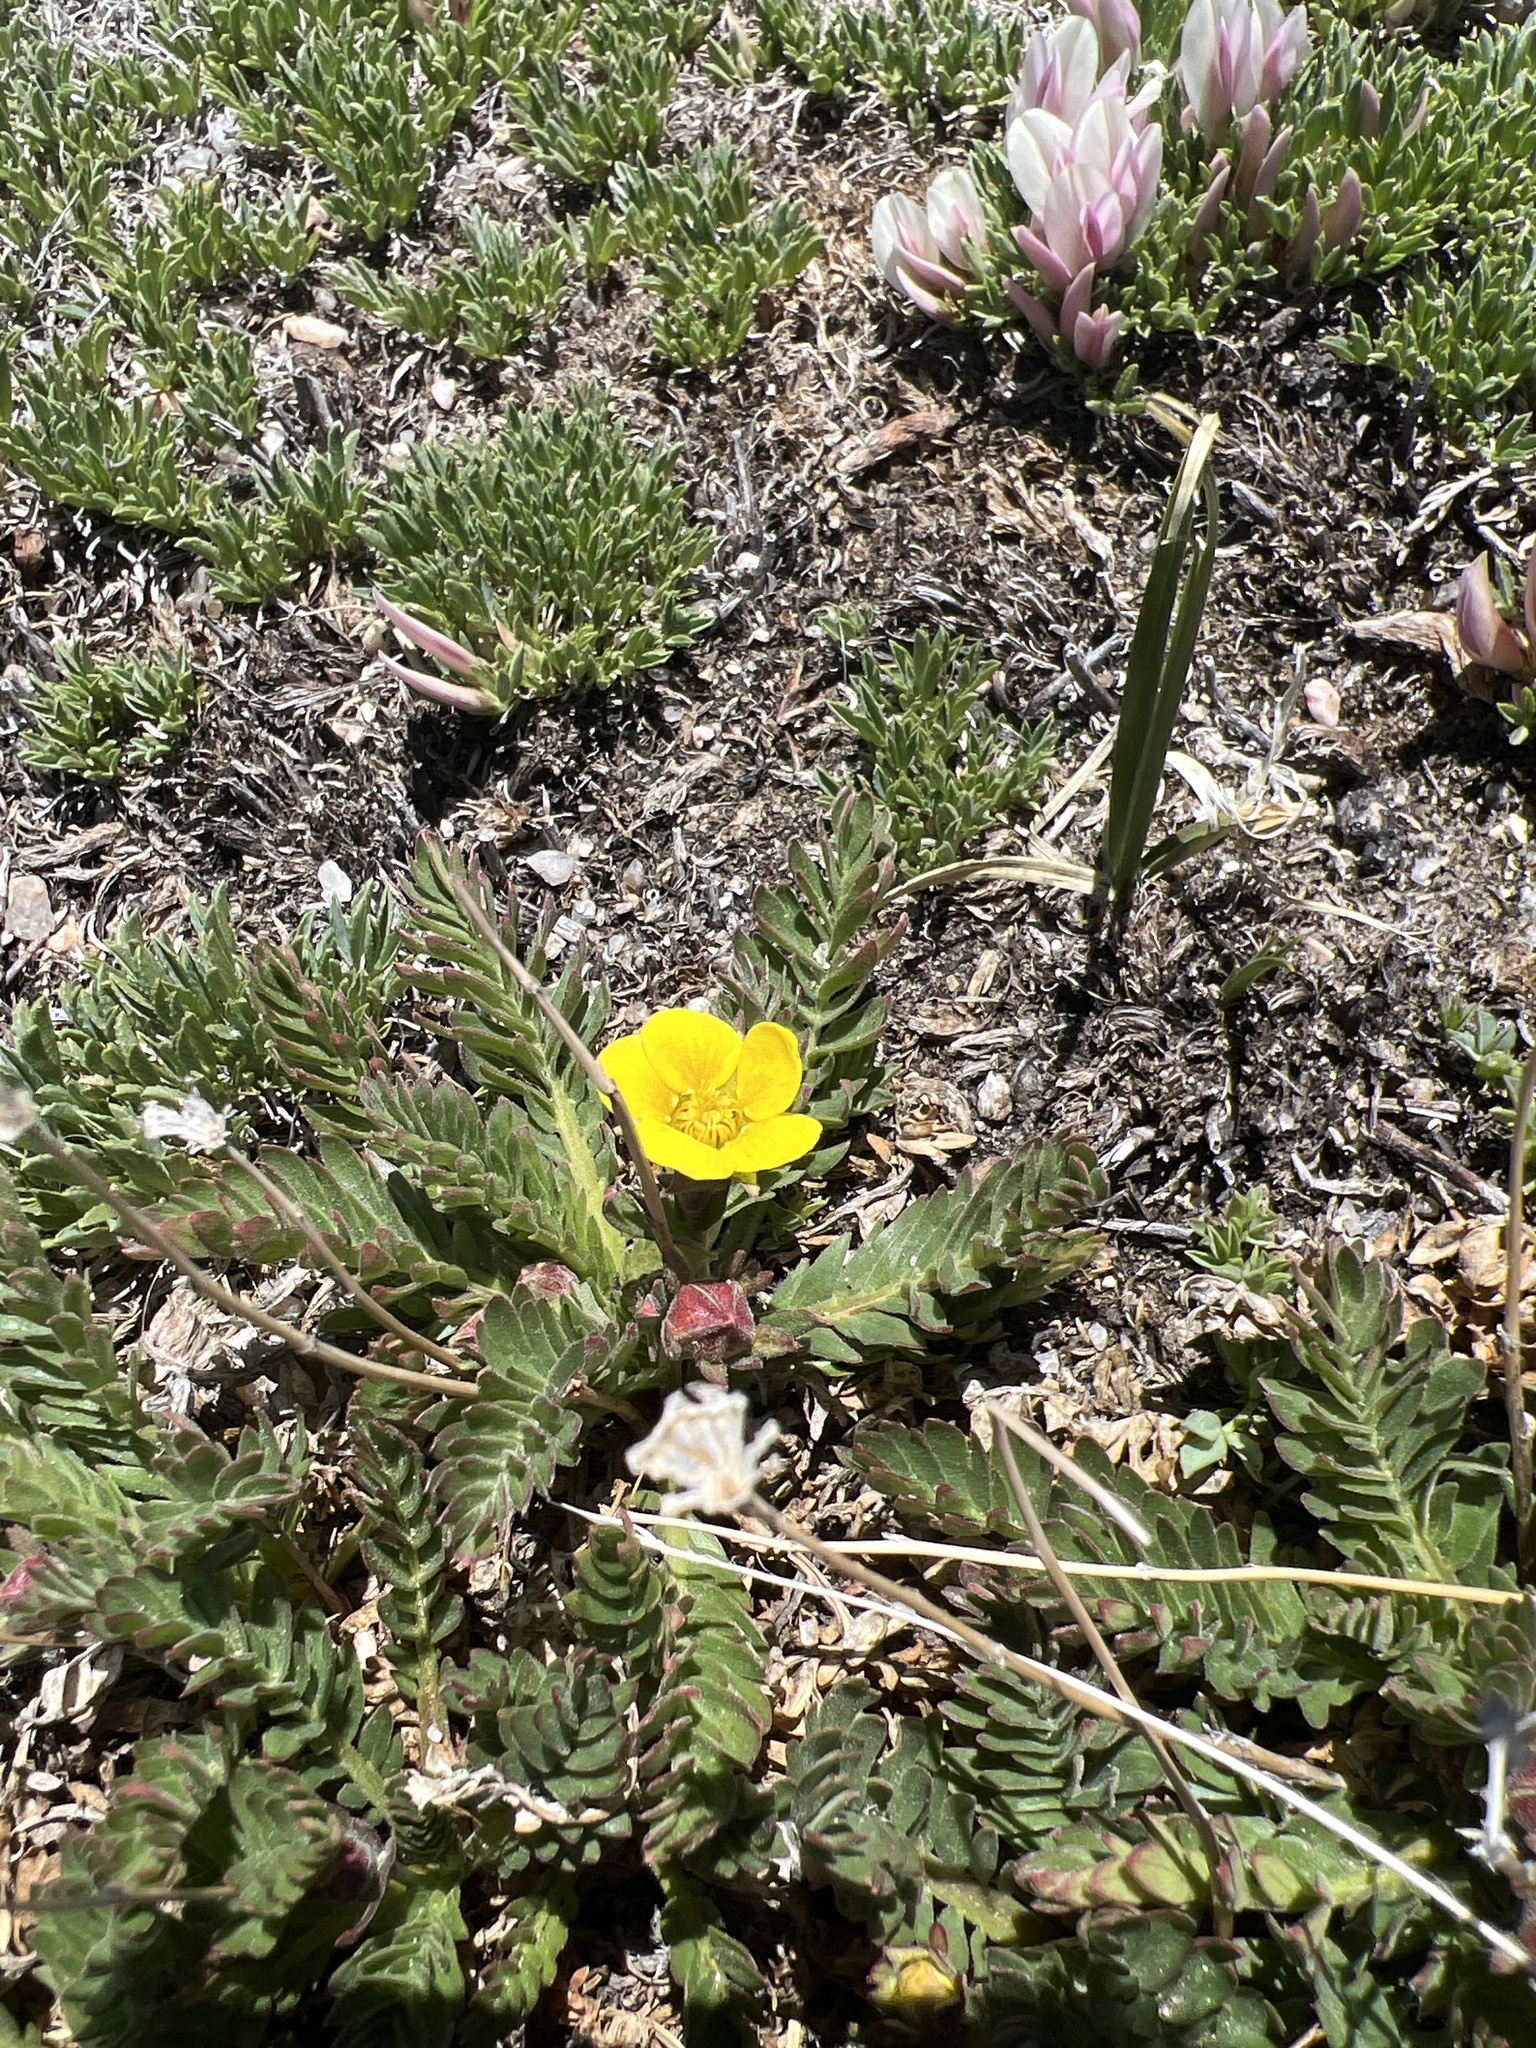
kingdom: Plantae
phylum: Tracheophyta
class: Magnoliopsida
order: Rosales
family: Rosaceae
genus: Geum
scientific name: Geum rossii
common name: Alpine avens
